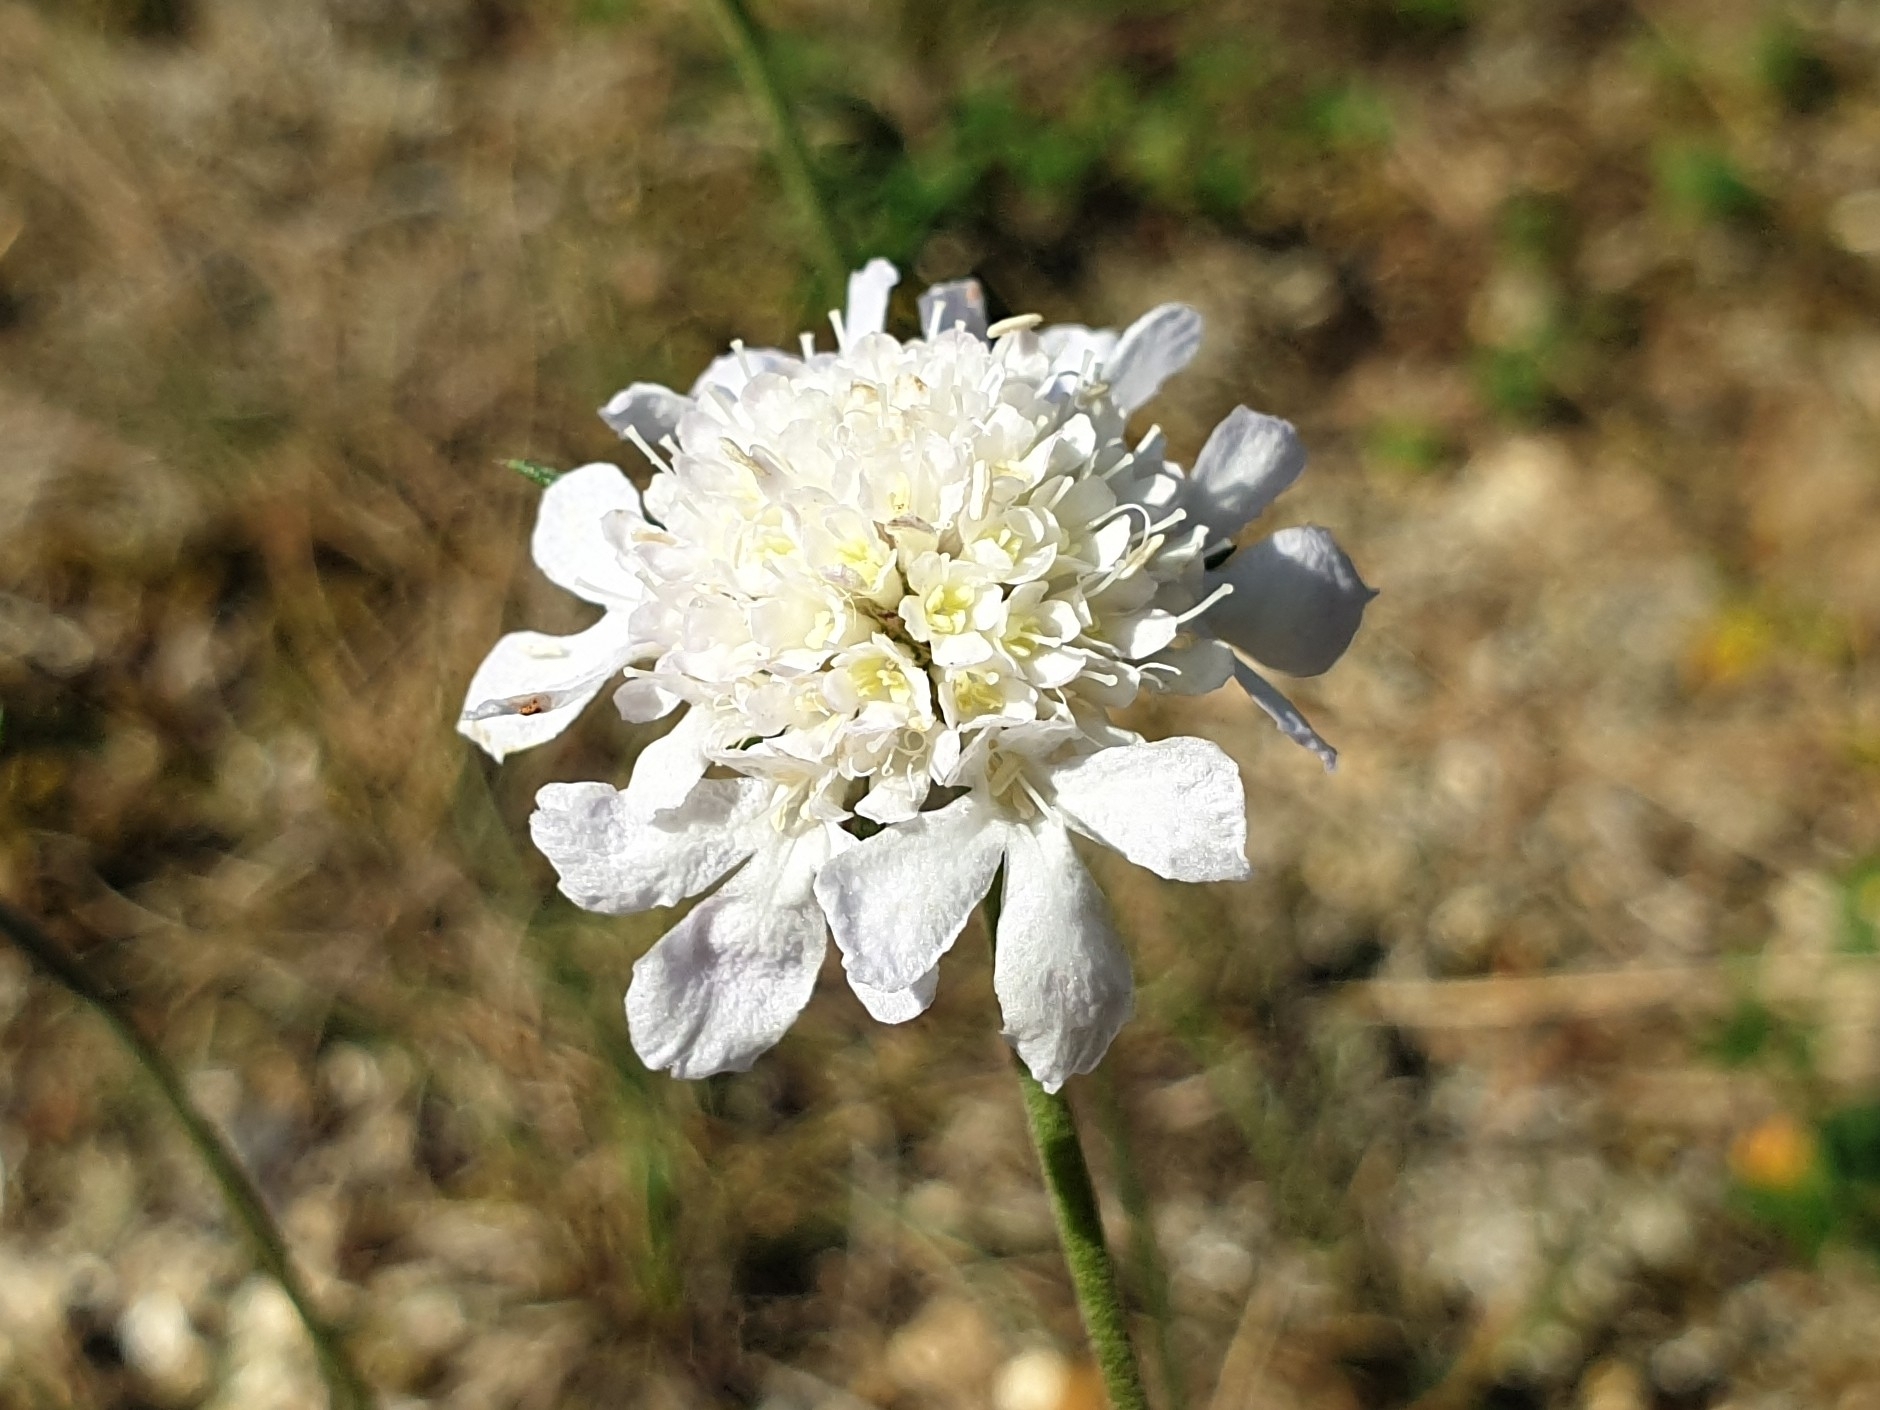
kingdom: Plantae
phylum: Tracheophyta
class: Magnoliopsida
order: Dipsacales
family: Caprifoliaceae
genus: Scabiosa
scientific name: Scabiosa canescens
